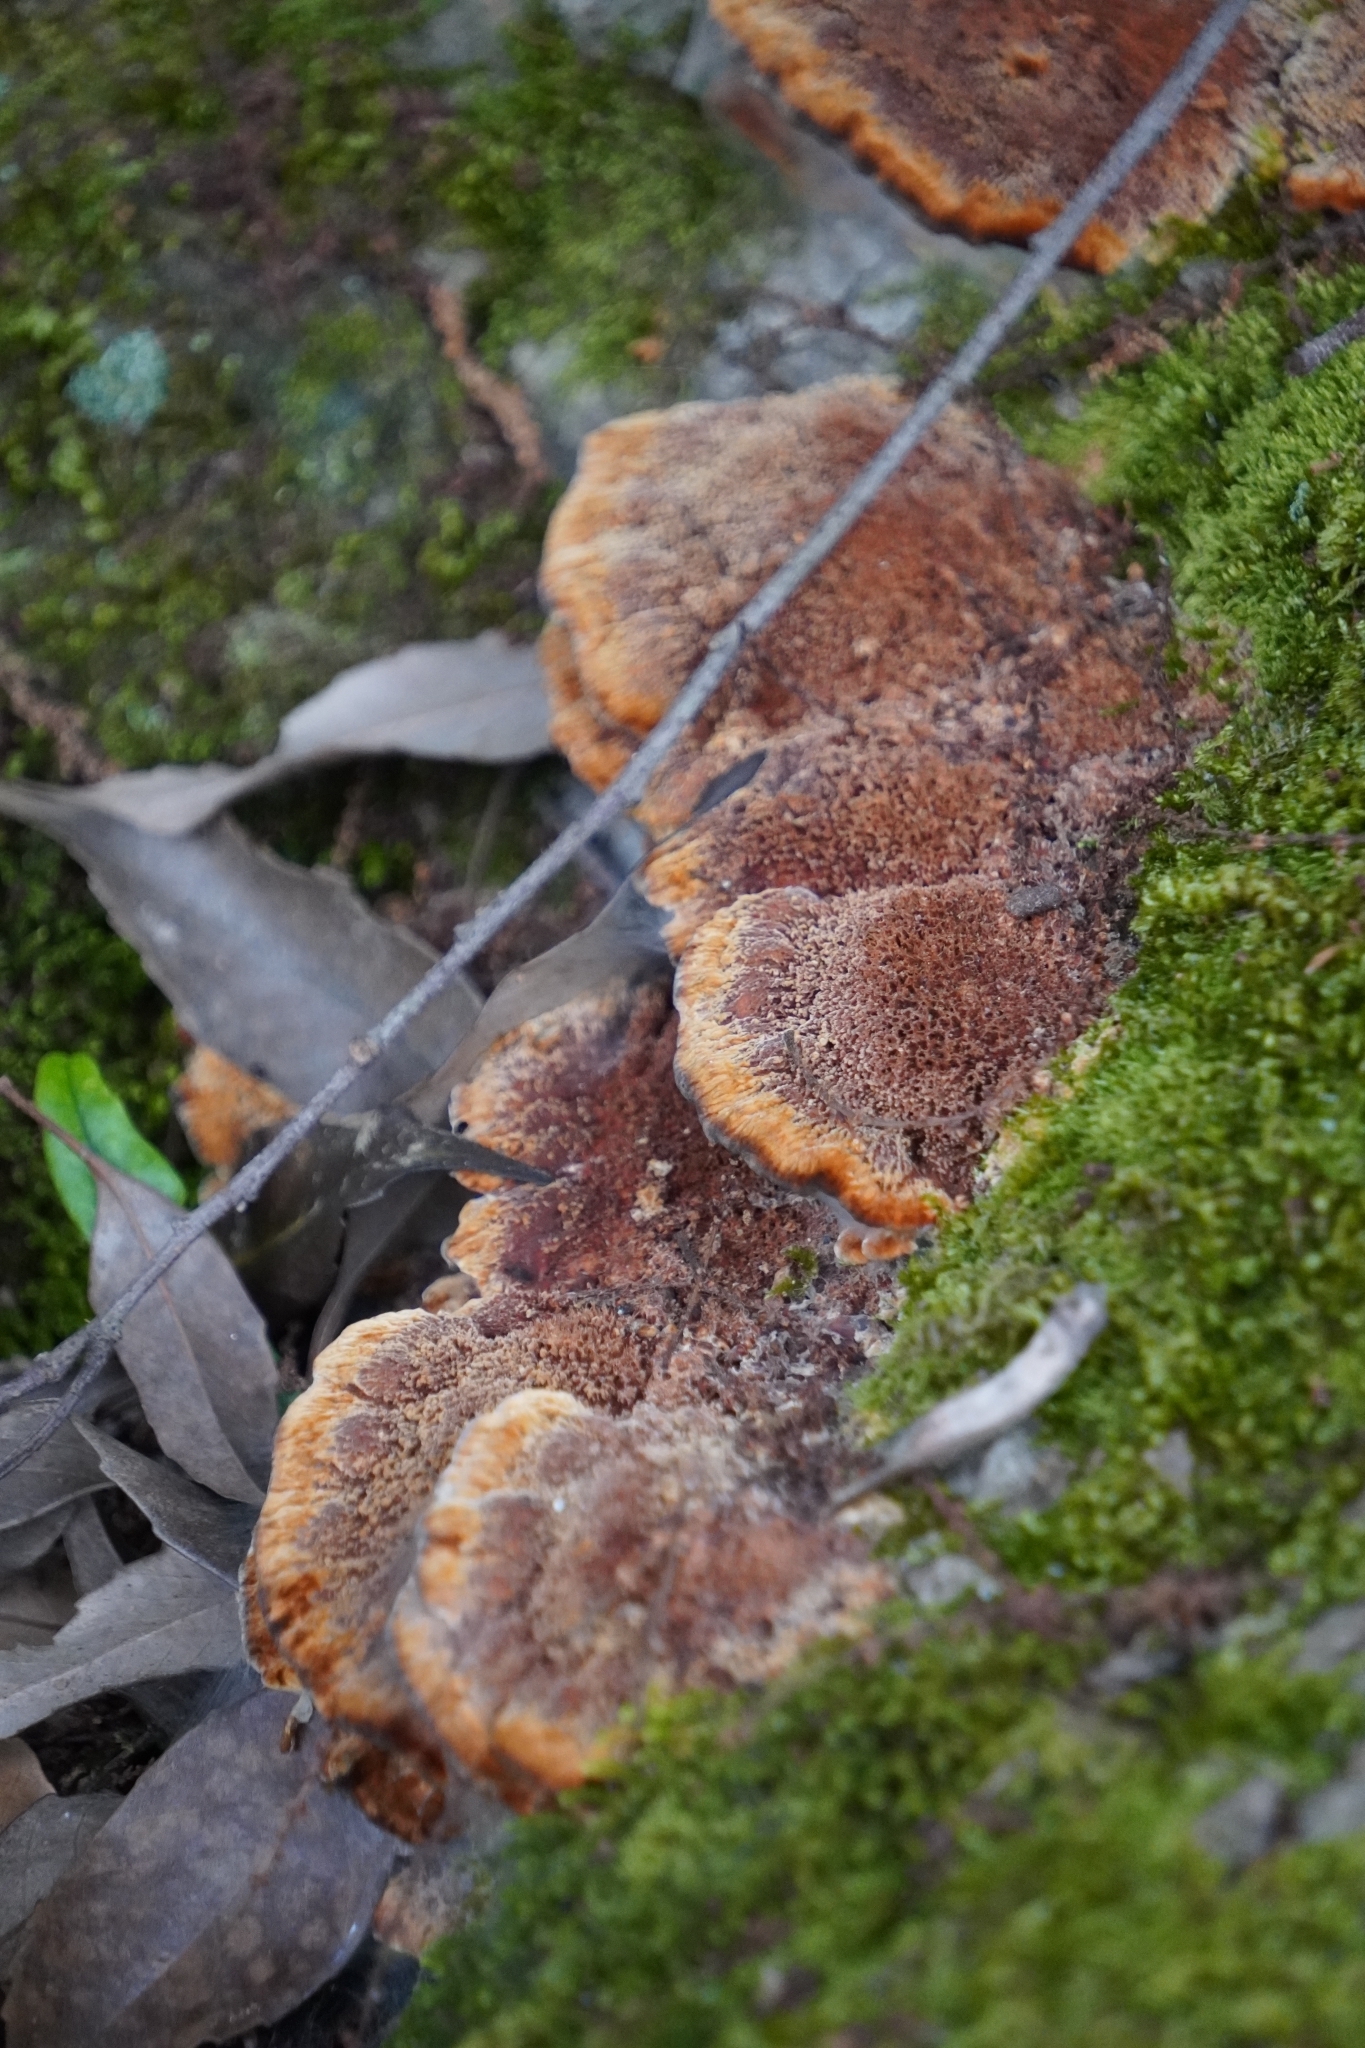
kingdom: Fungi
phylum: Basidiomycota
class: Agaricomycetes
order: Hymenochaetales
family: Hymenochaetaceae
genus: Phellinus
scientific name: Phellinus gilvus
